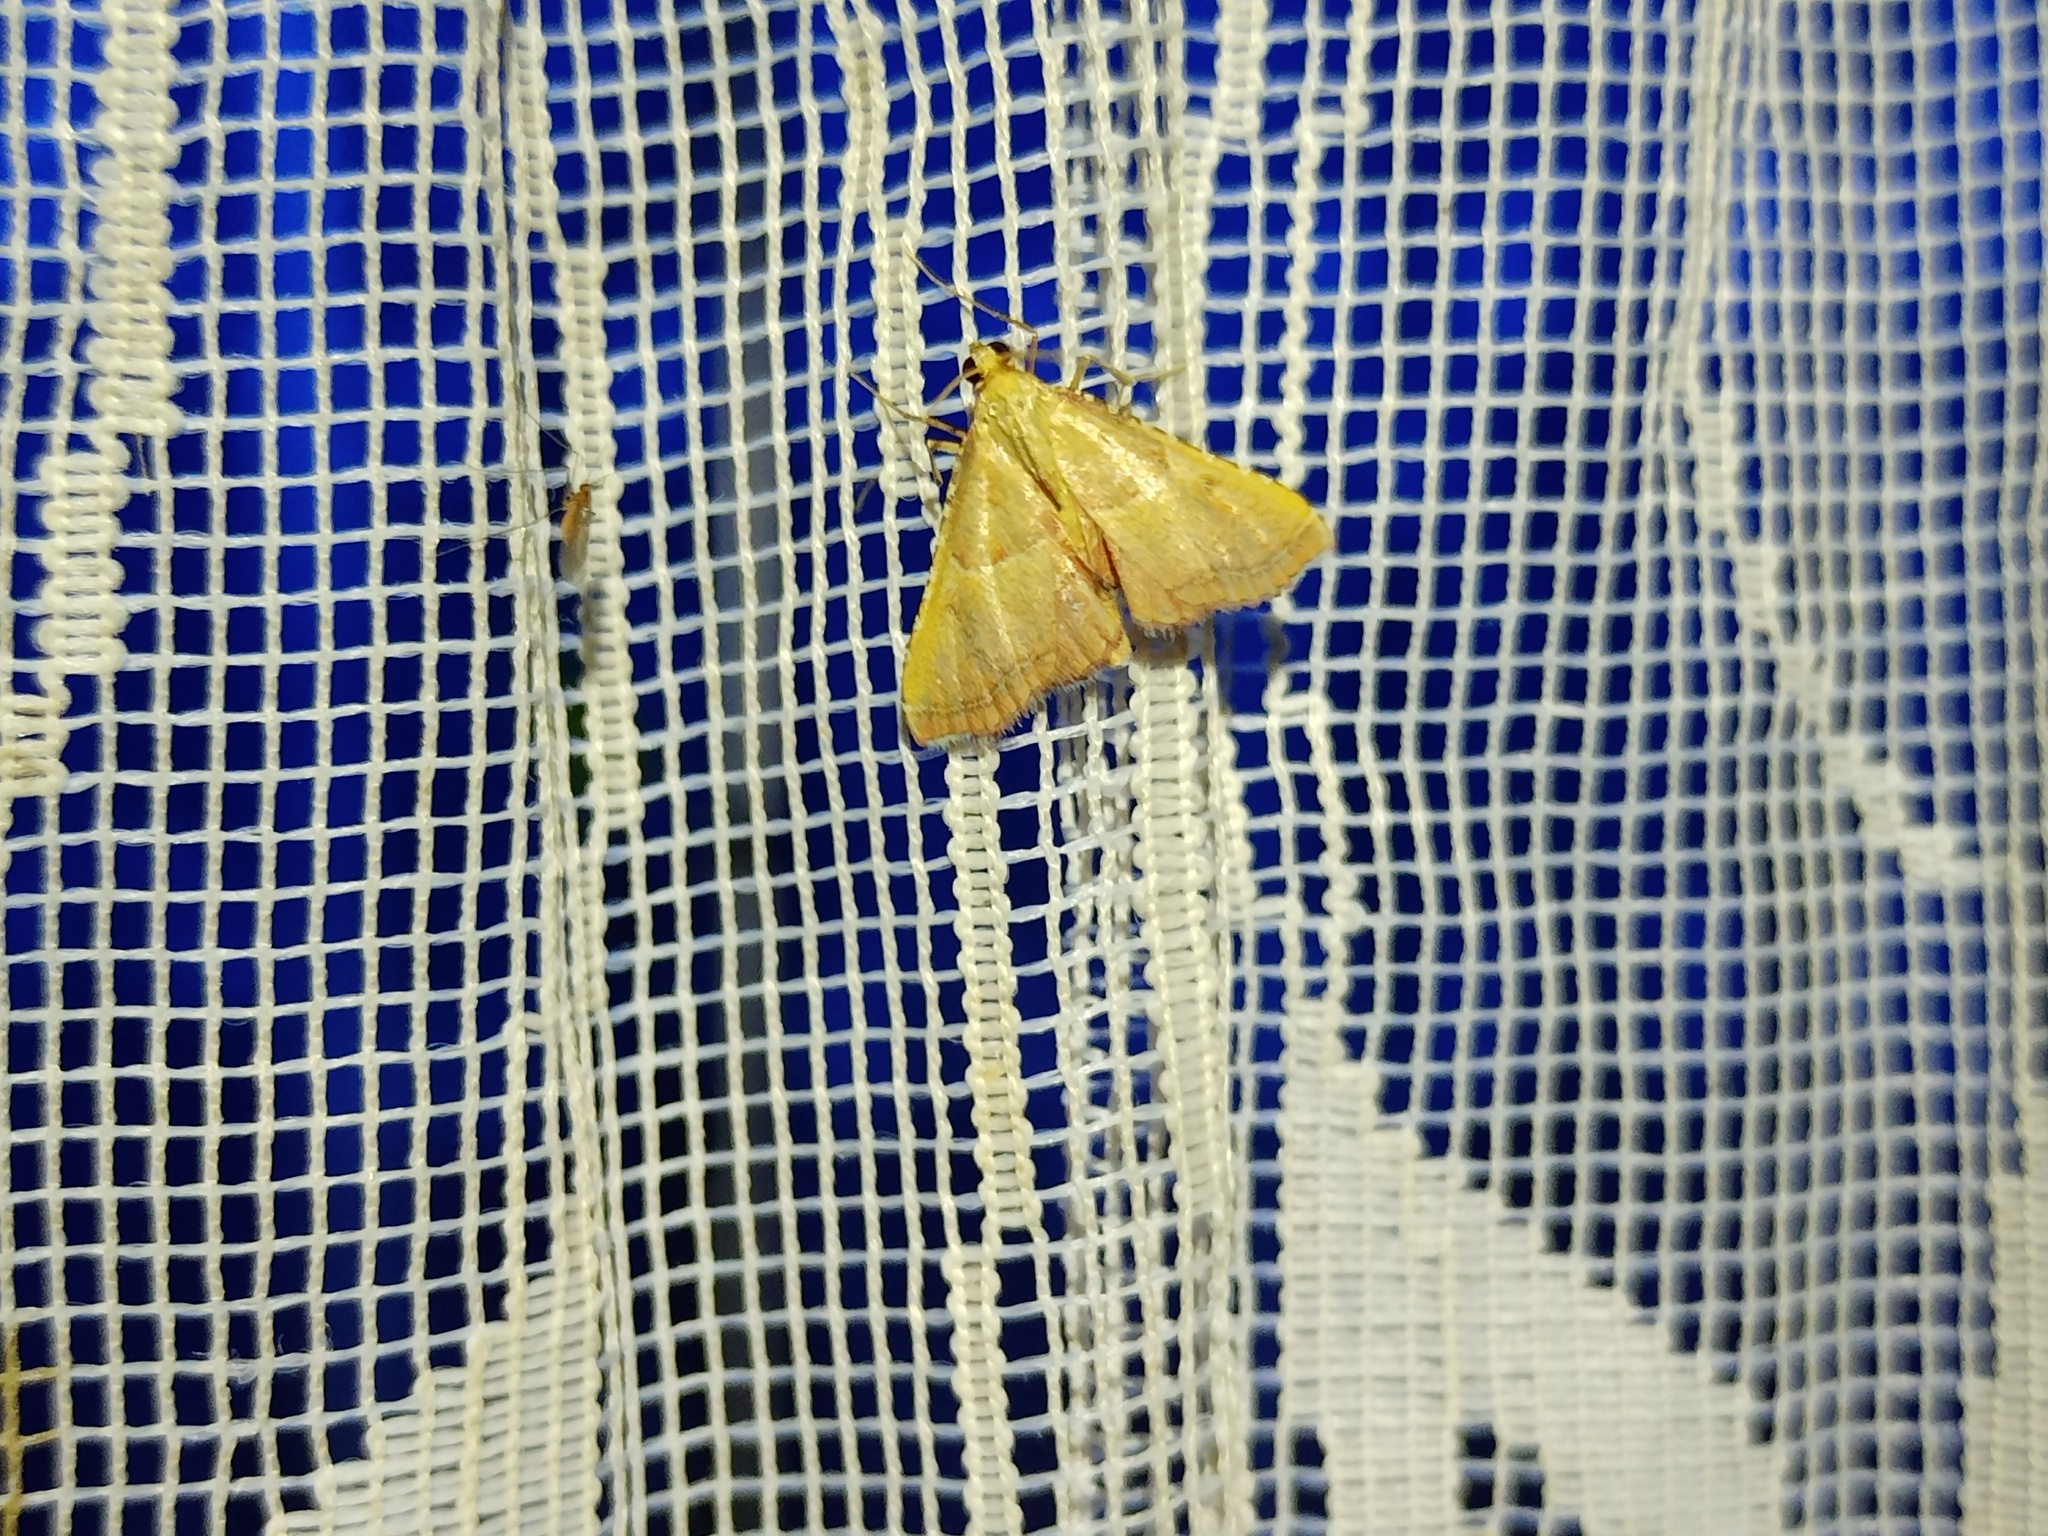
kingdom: Animalia
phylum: Arthropoda
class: Insecta
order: Lepidoptera
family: Pyralidae
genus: Endotricha
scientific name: Endotricha flammealis
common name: Rosy tabby
